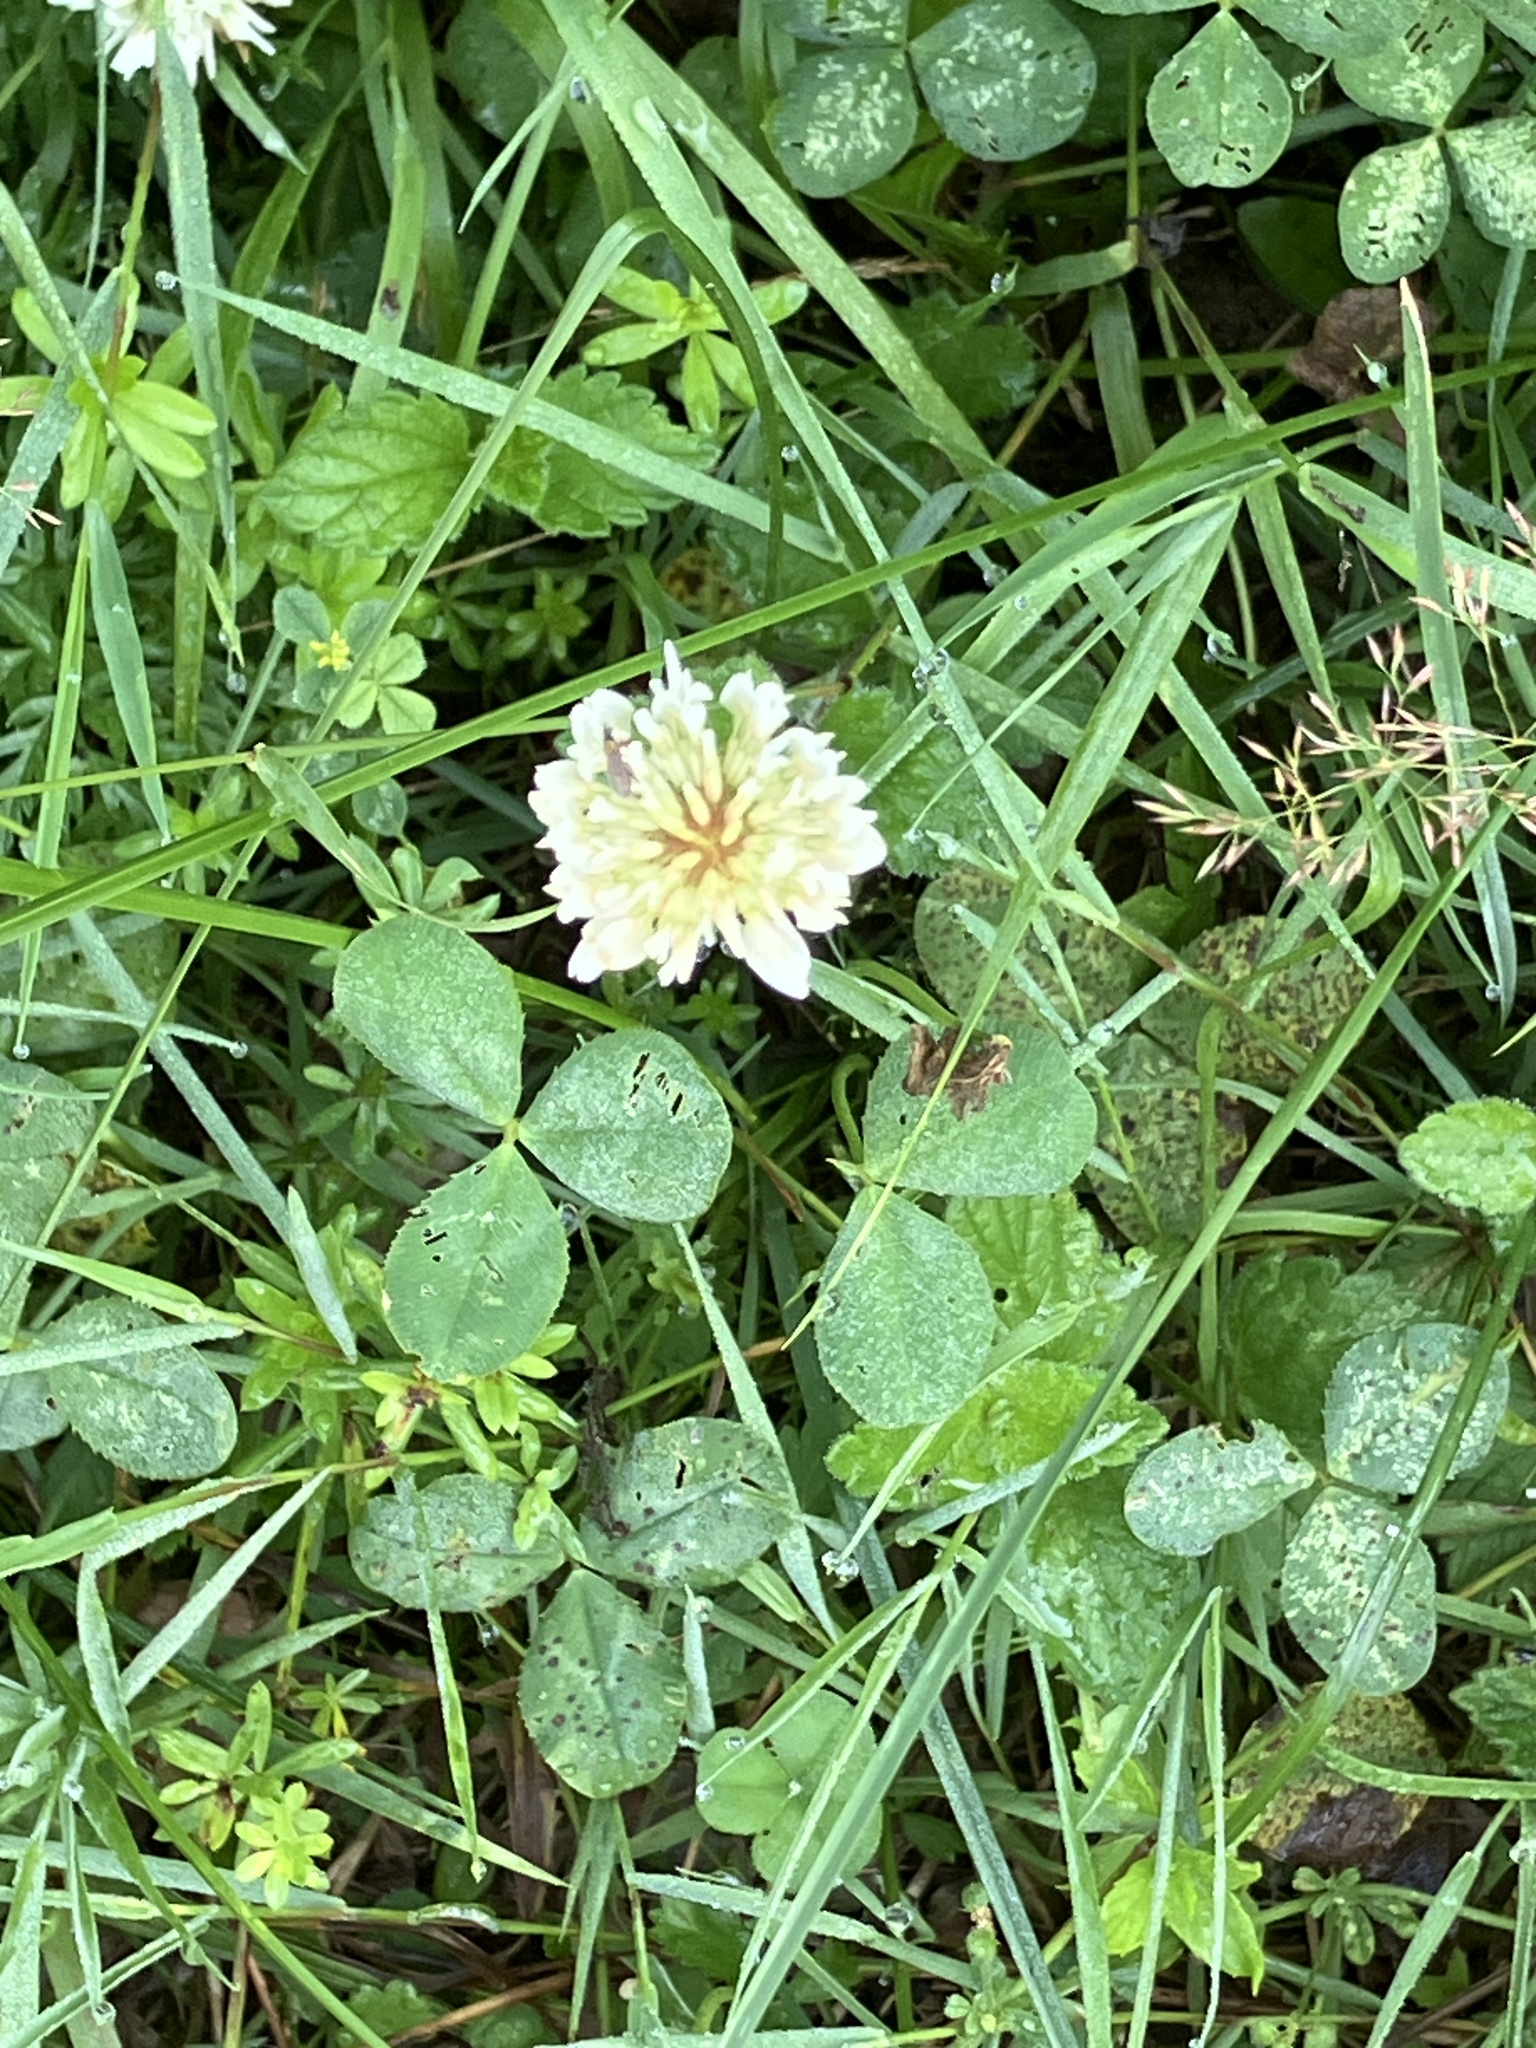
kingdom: Plantae
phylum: Tracheophyta
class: Magnoliopsida
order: Fabales
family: Fabaceae
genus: Trifolium
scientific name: Trifolium repens
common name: White clover
